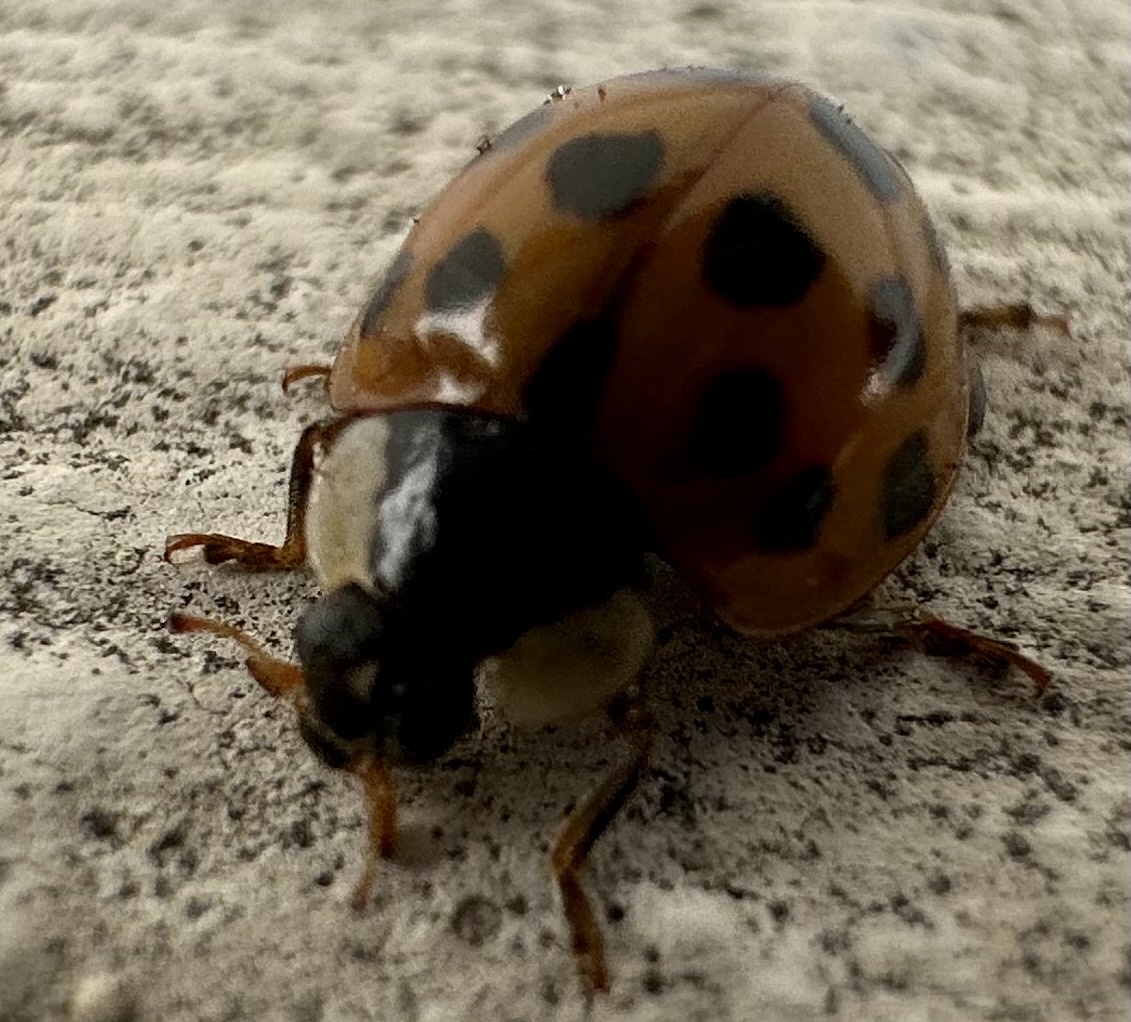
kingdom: Animalia
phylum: Arthropoda
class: Insecta
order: Coleoptera
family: Coccinellidae
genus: Harmonia
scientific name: Harmonia axyridis
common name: Harlequin ladybird
